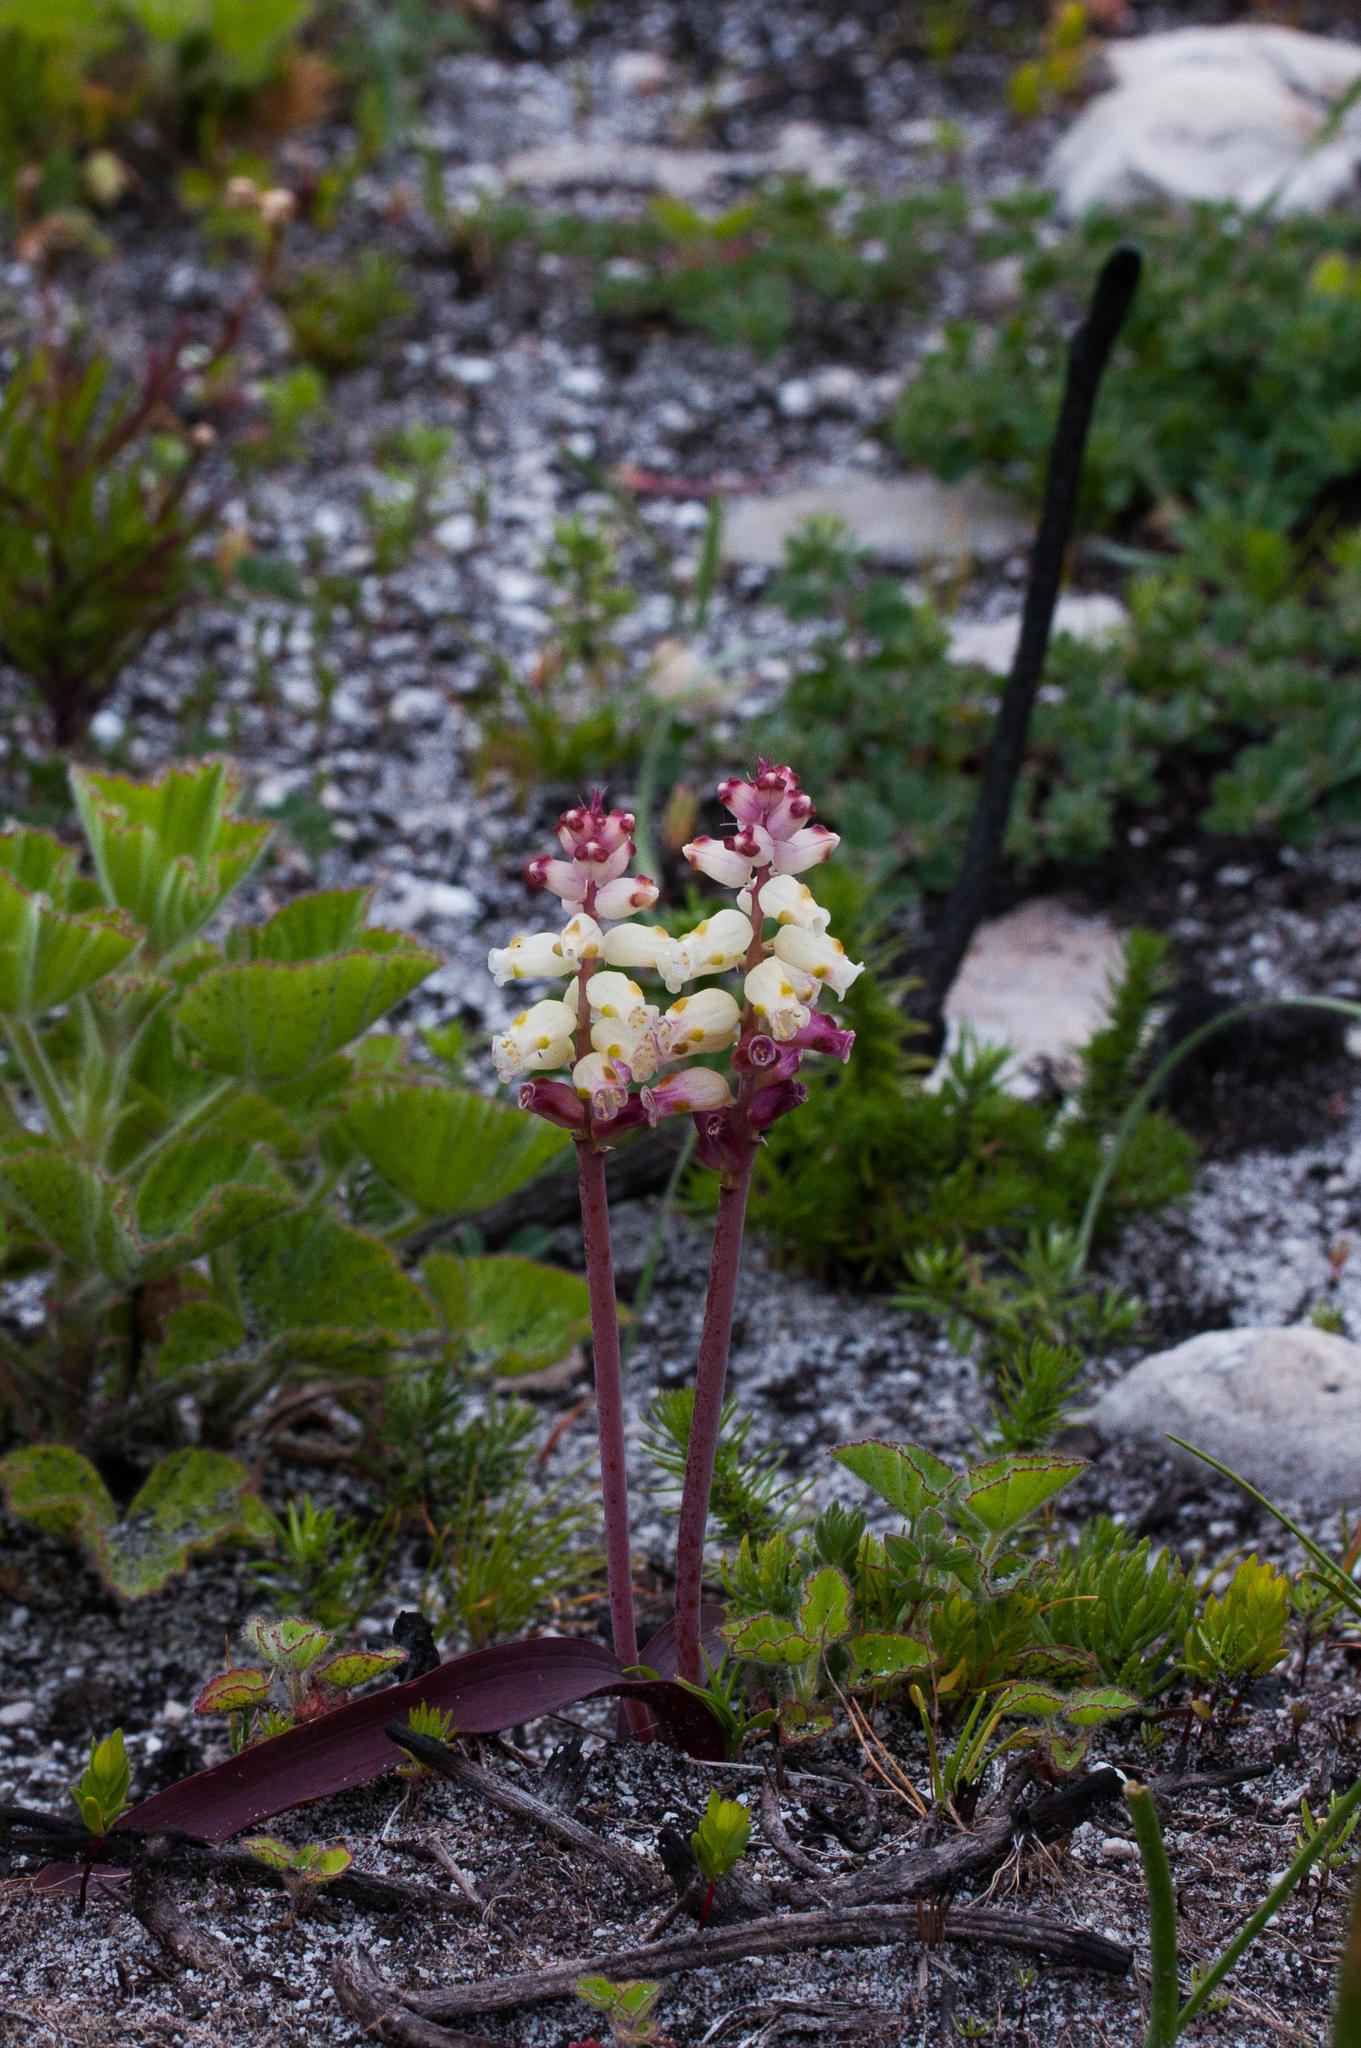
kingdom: Plantae
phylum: Tracheophyta
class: Liliopsida
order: Asparagales
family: Asparagaceae
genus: Lachenalia
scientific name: Lachenalia peersii
